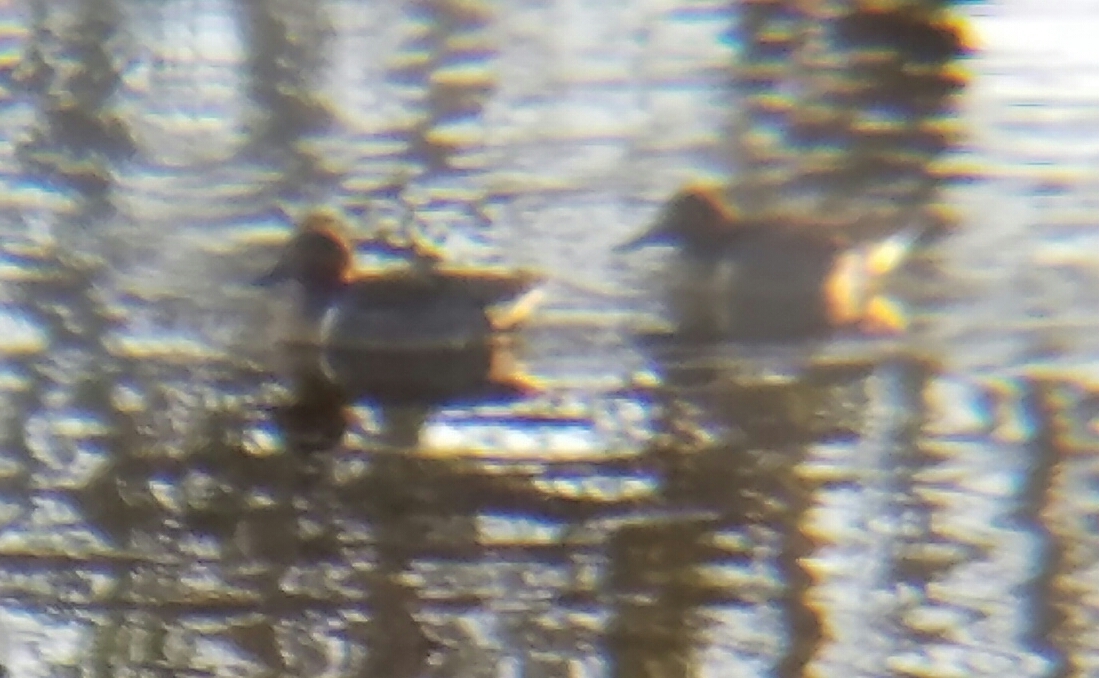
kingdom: Animalia
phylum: Chordata
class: Aves
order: Anseriformes
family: Anatidae
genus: Anas
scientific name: Anas crecca
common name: Eurasian teal
